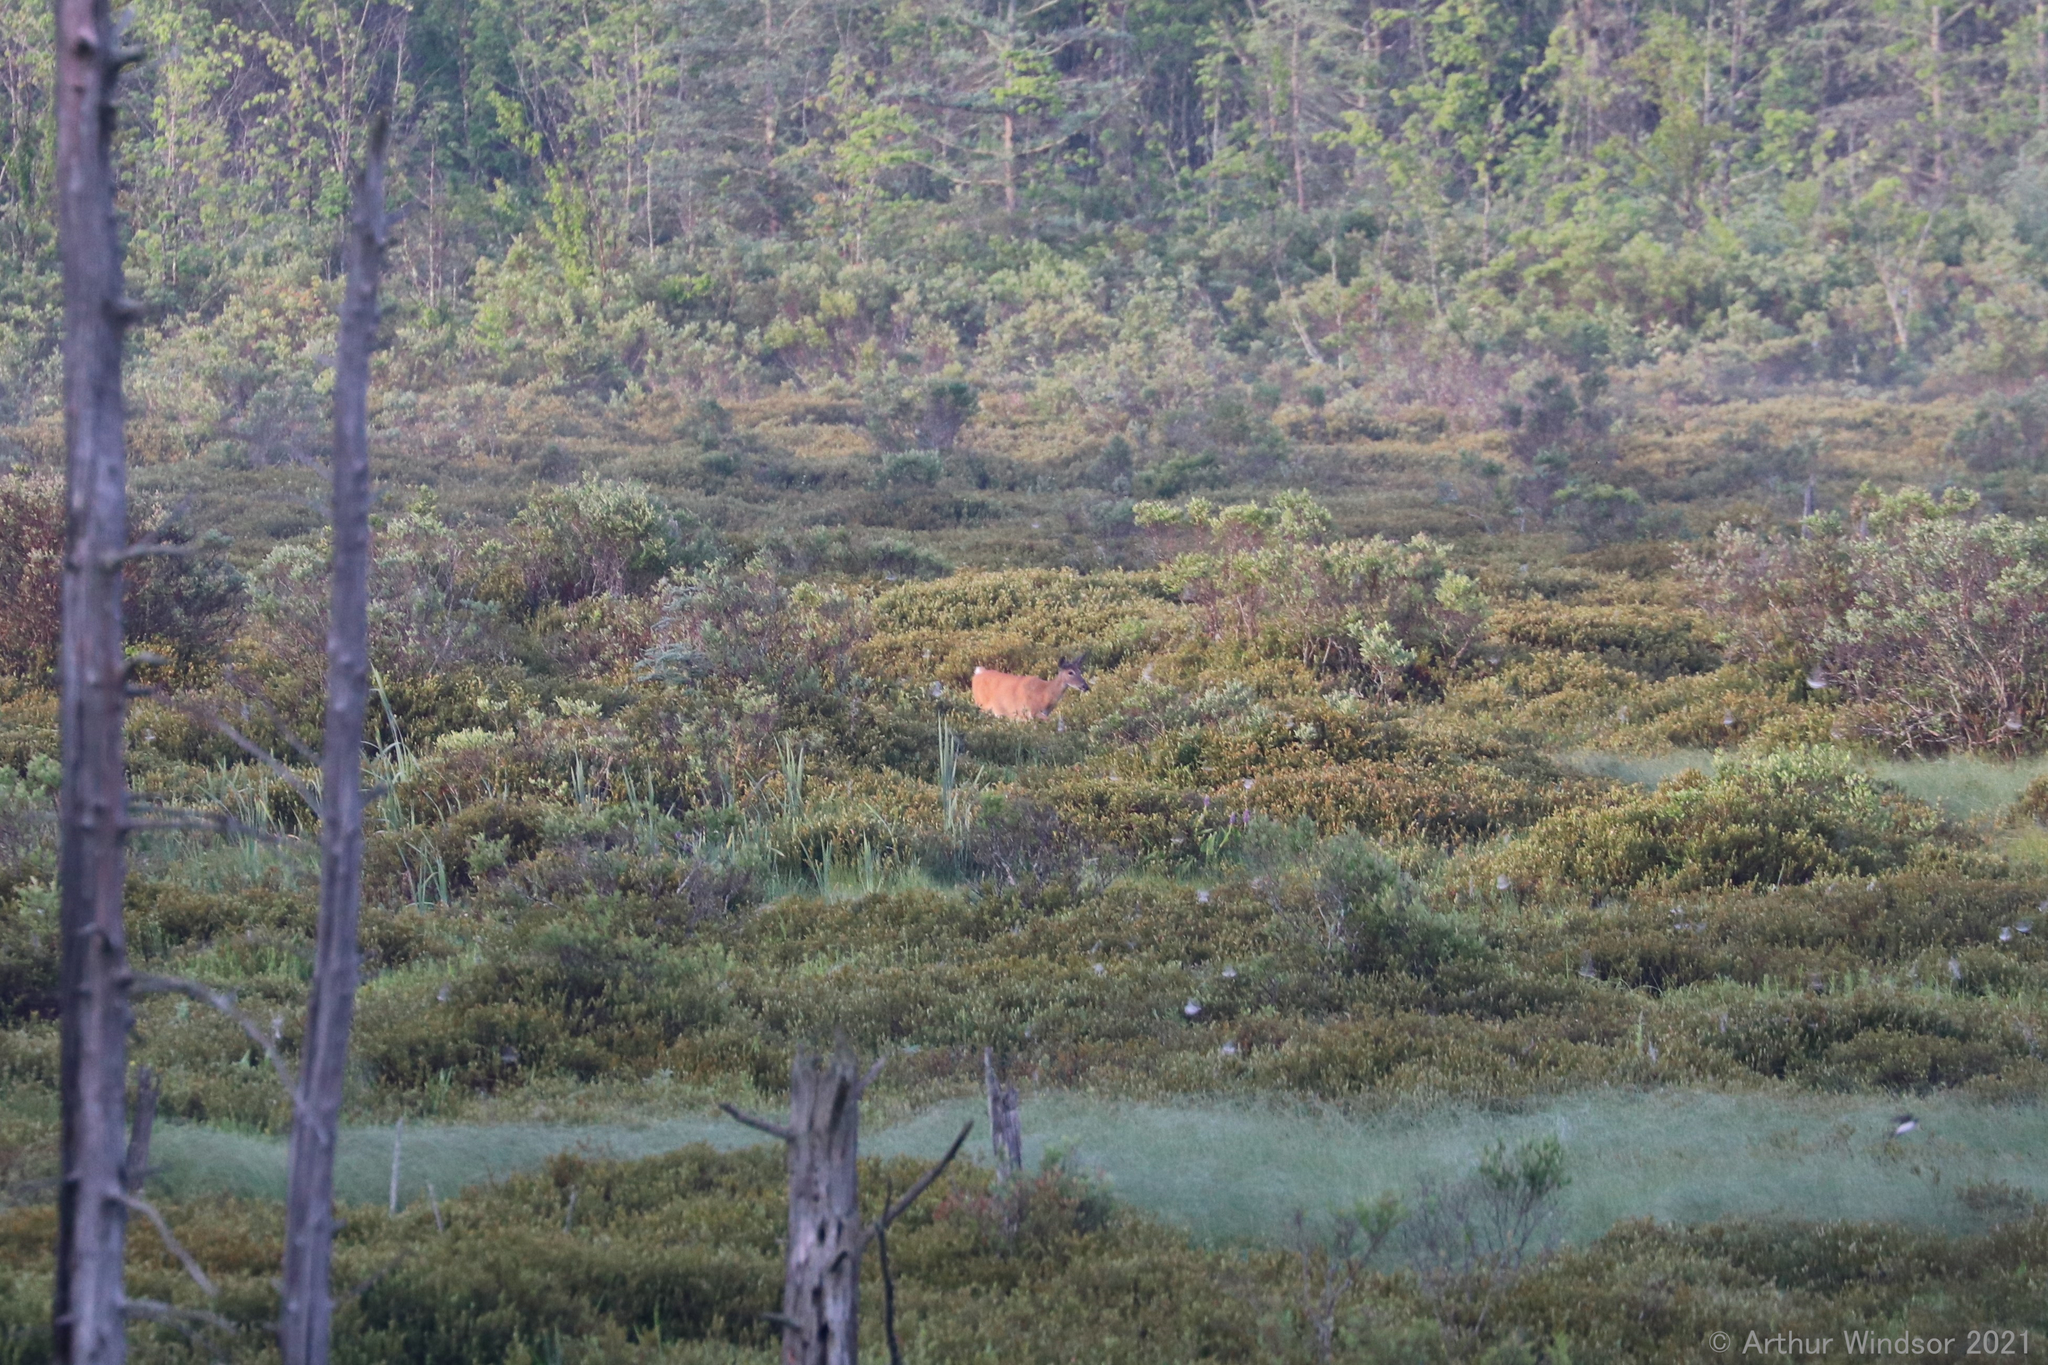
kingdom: Animalia
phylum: Chordata
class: Mammalia
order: Artiodactyla
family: Cervidae
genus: Odocoileus
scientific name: Odocoileus virginianus
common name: White-tailed deer
